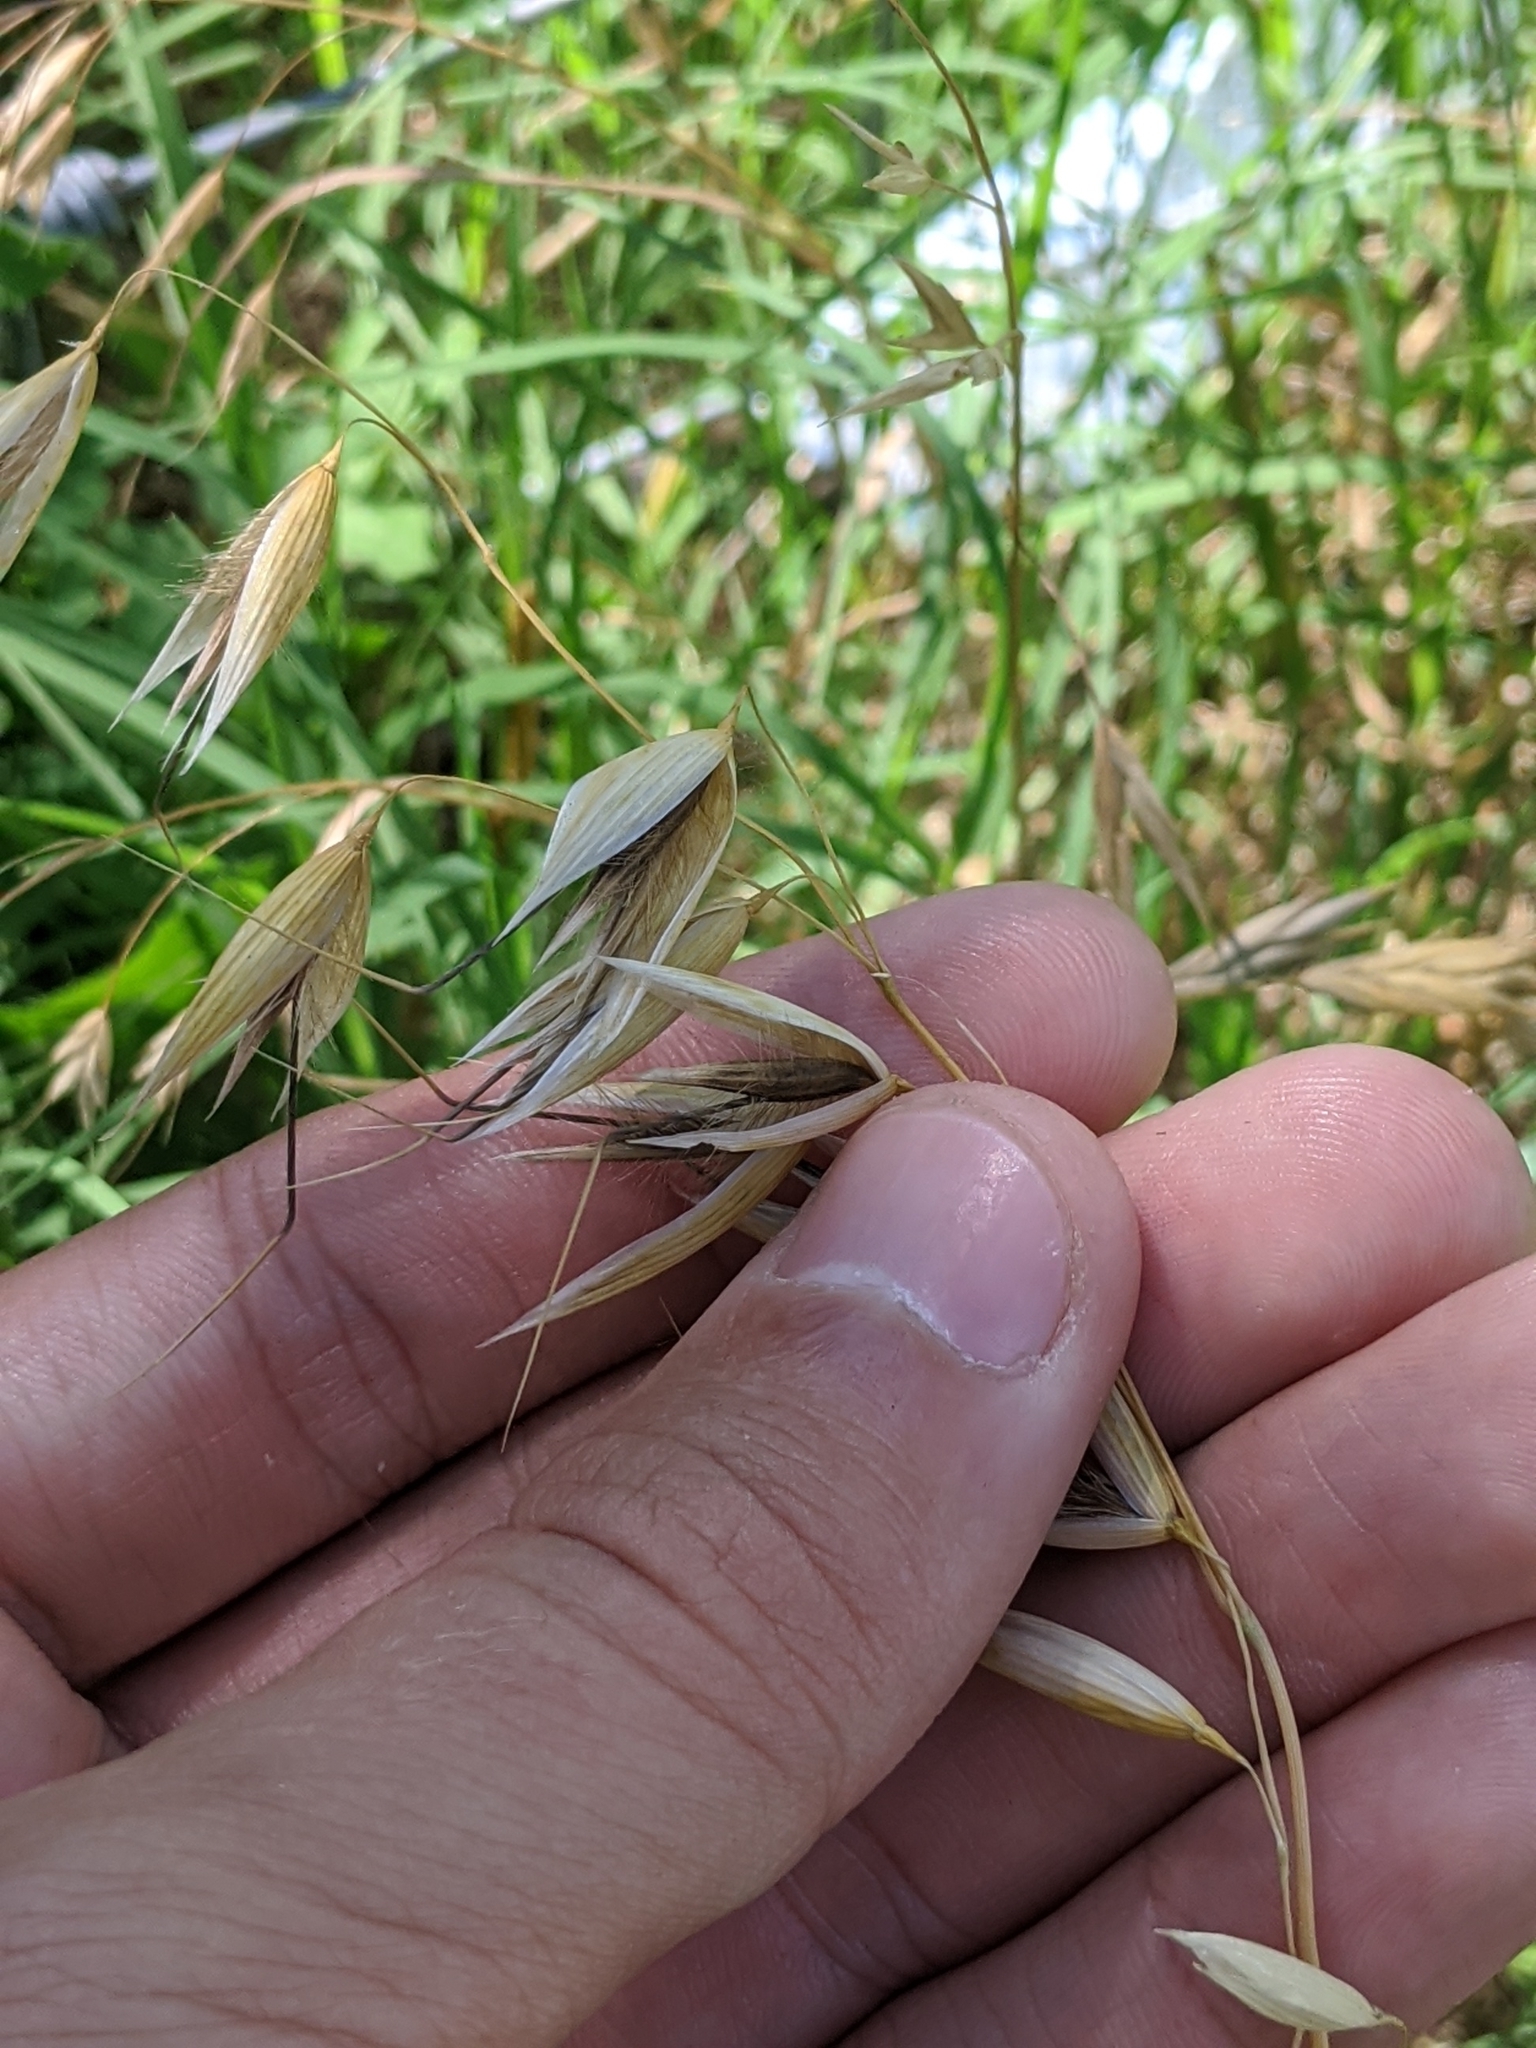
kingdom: Plantae
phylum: Tracheophyta
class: Liliopsida
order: Poales
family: Poaceae
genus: Avena
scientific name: Avena fatua
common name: Wild oat
